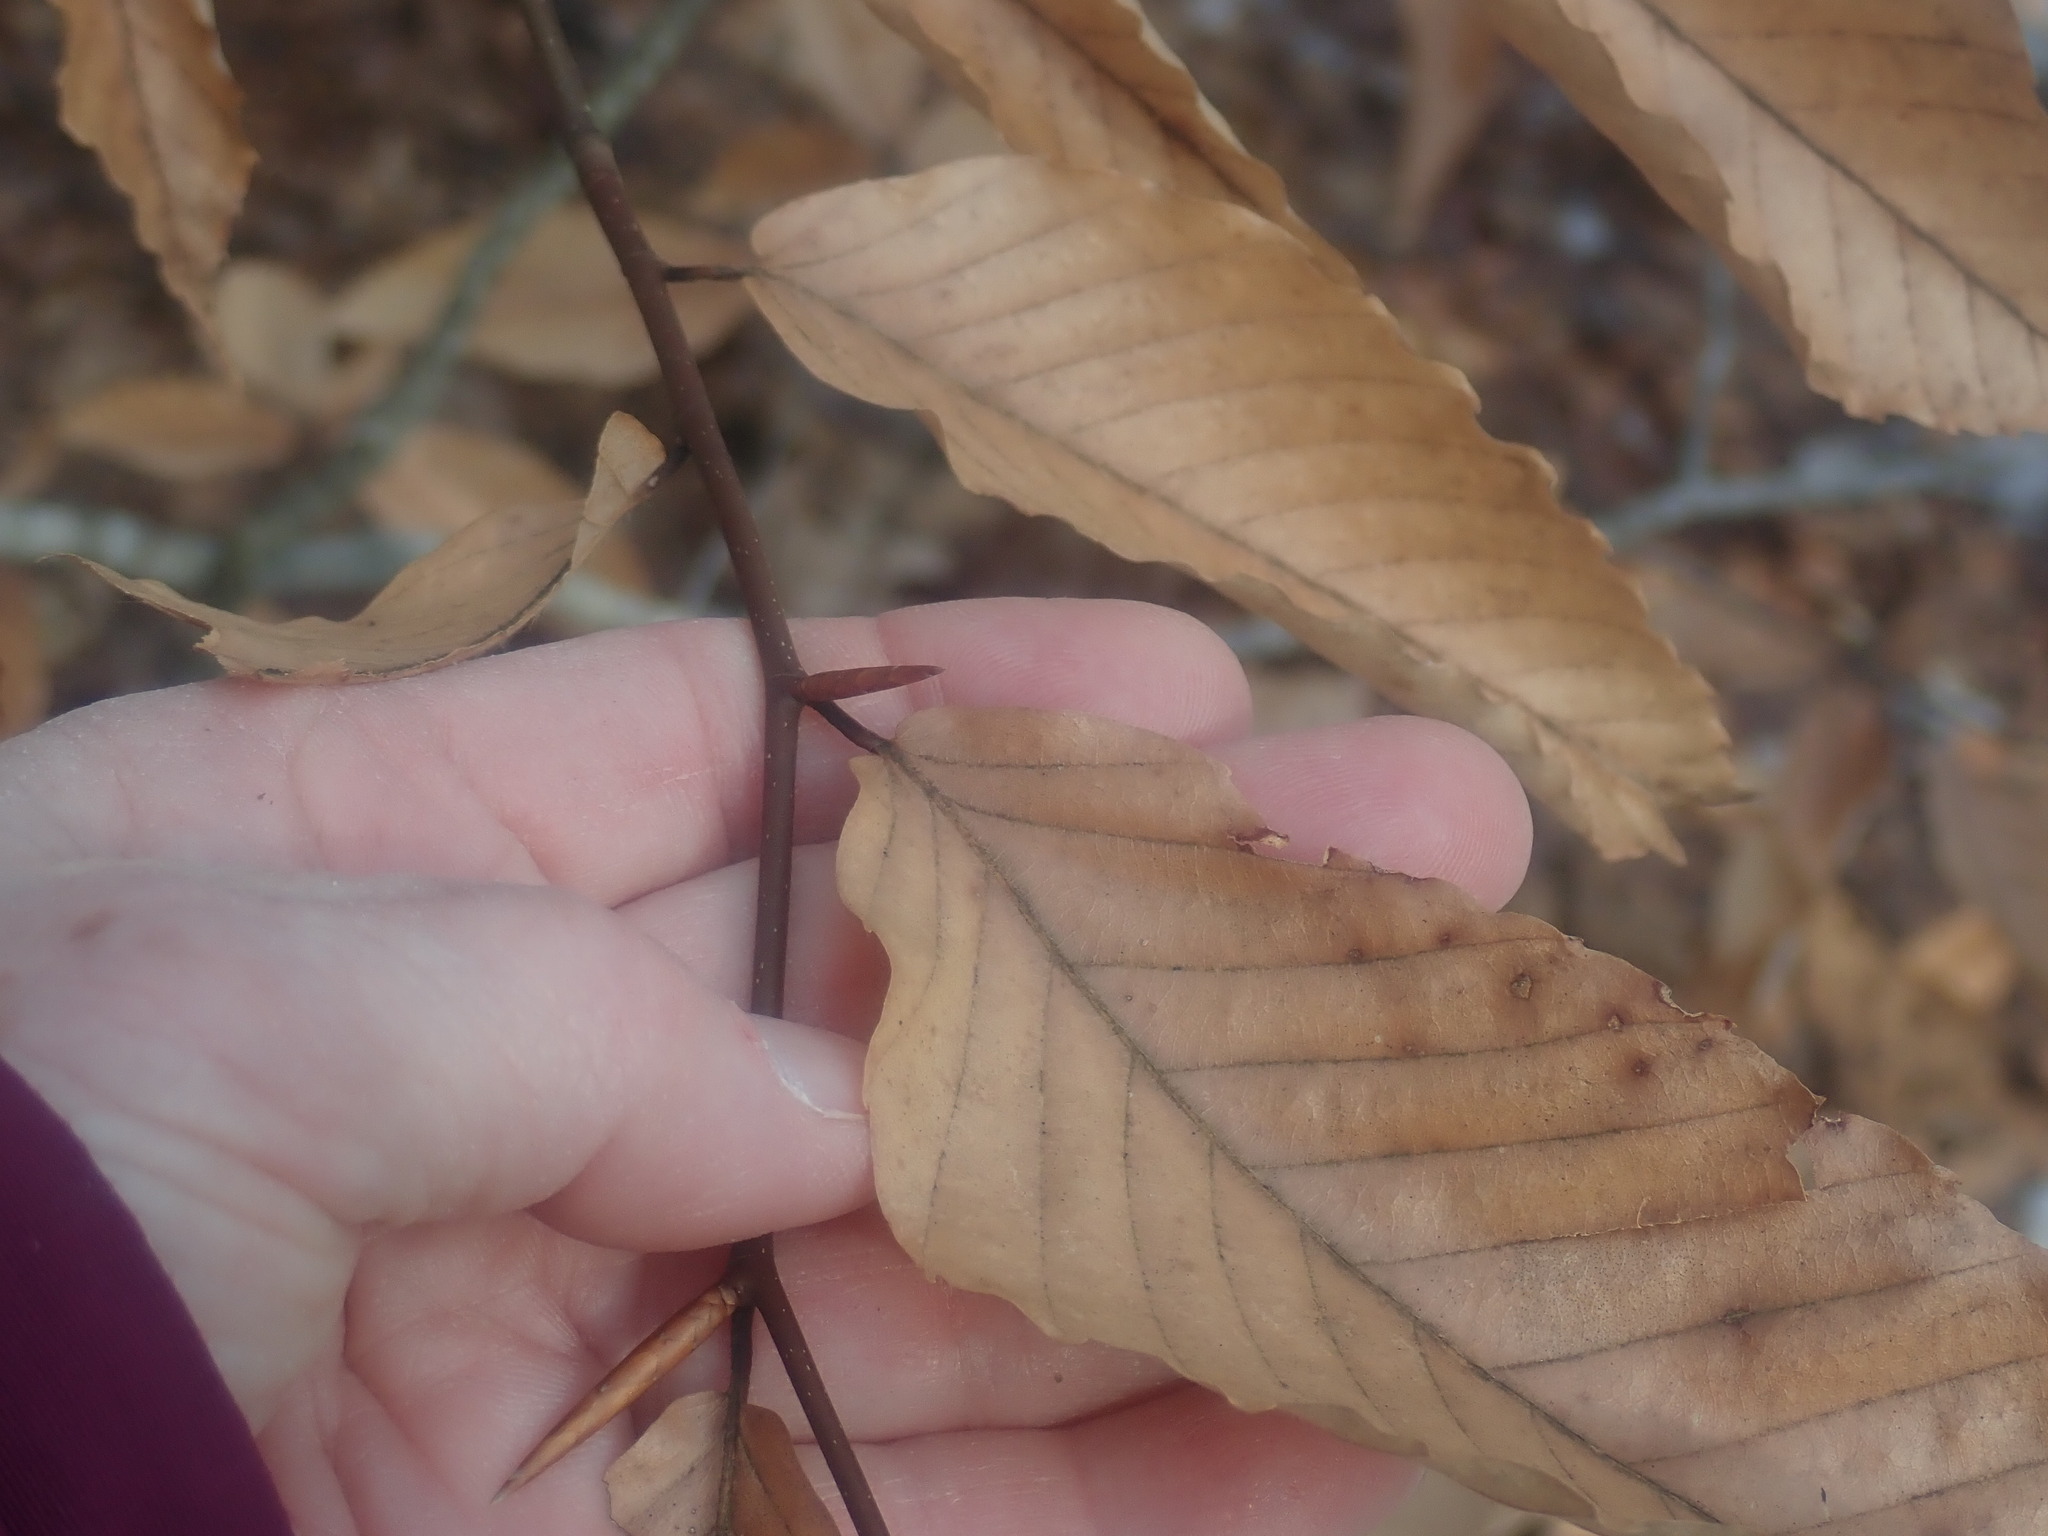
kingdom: Plantae
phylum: Tracheophyta
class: Magnoliopsida
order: Fagales
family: Fagaceae
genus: Fagus
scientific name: Fagus grandifolia
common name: American beech
